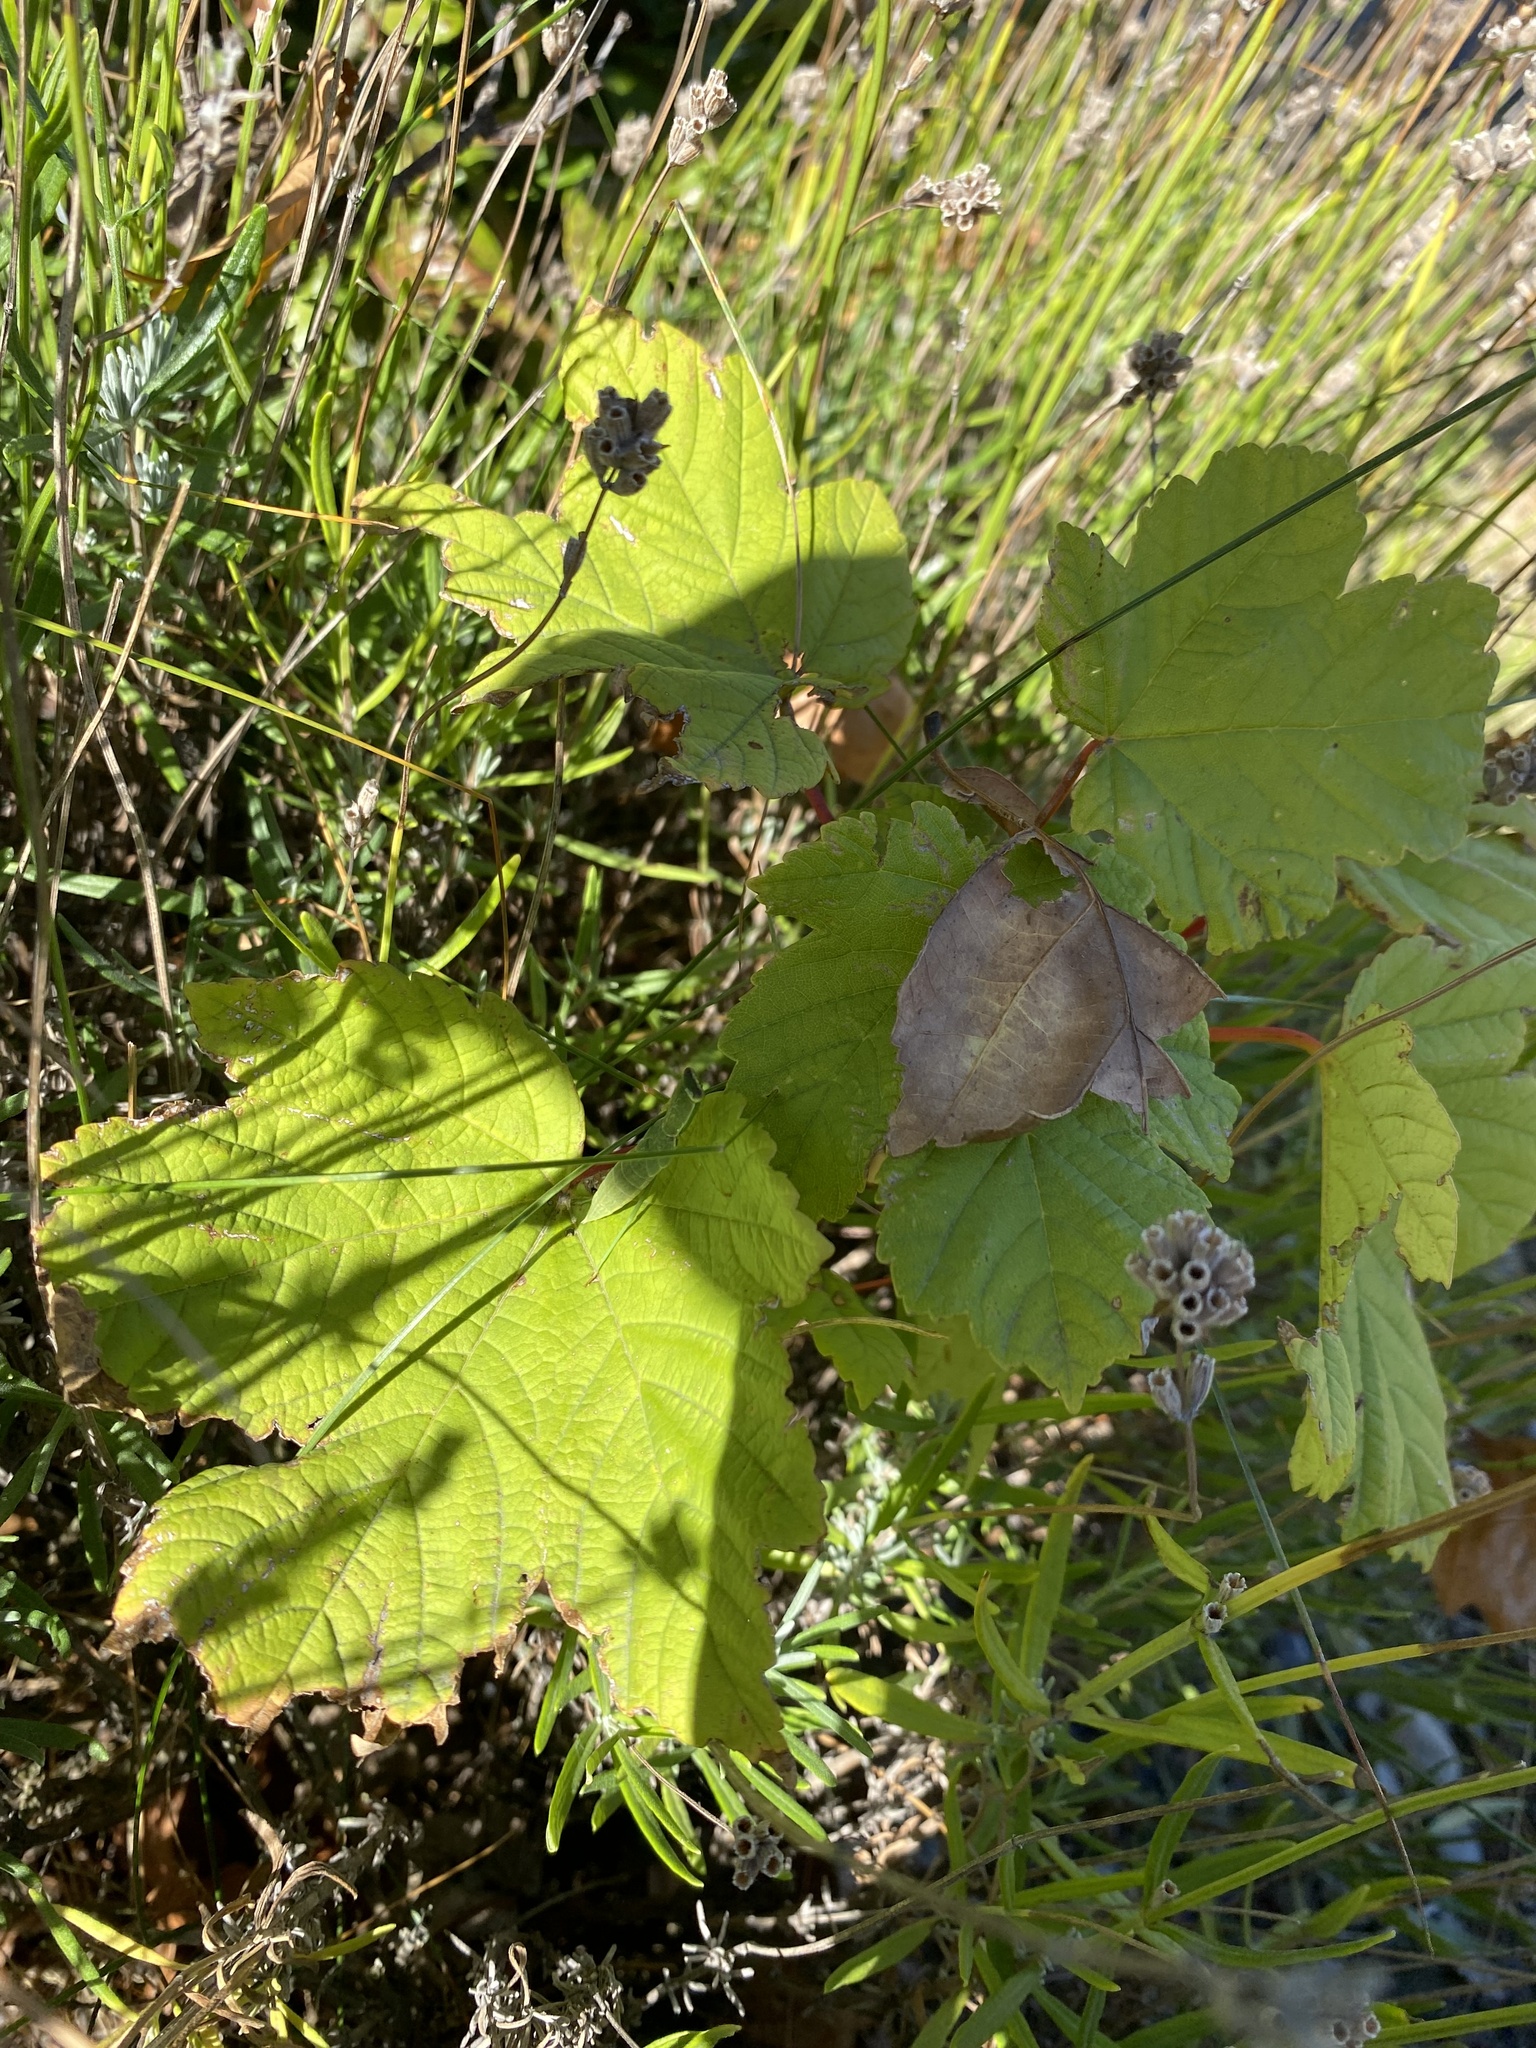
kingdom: Plantae
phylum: Tracheophyta
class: Magnoliopsida
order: Sapindales
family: Sapindaceae
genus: Acer
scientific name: Acer pseudoplatanus
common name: Sycamore
